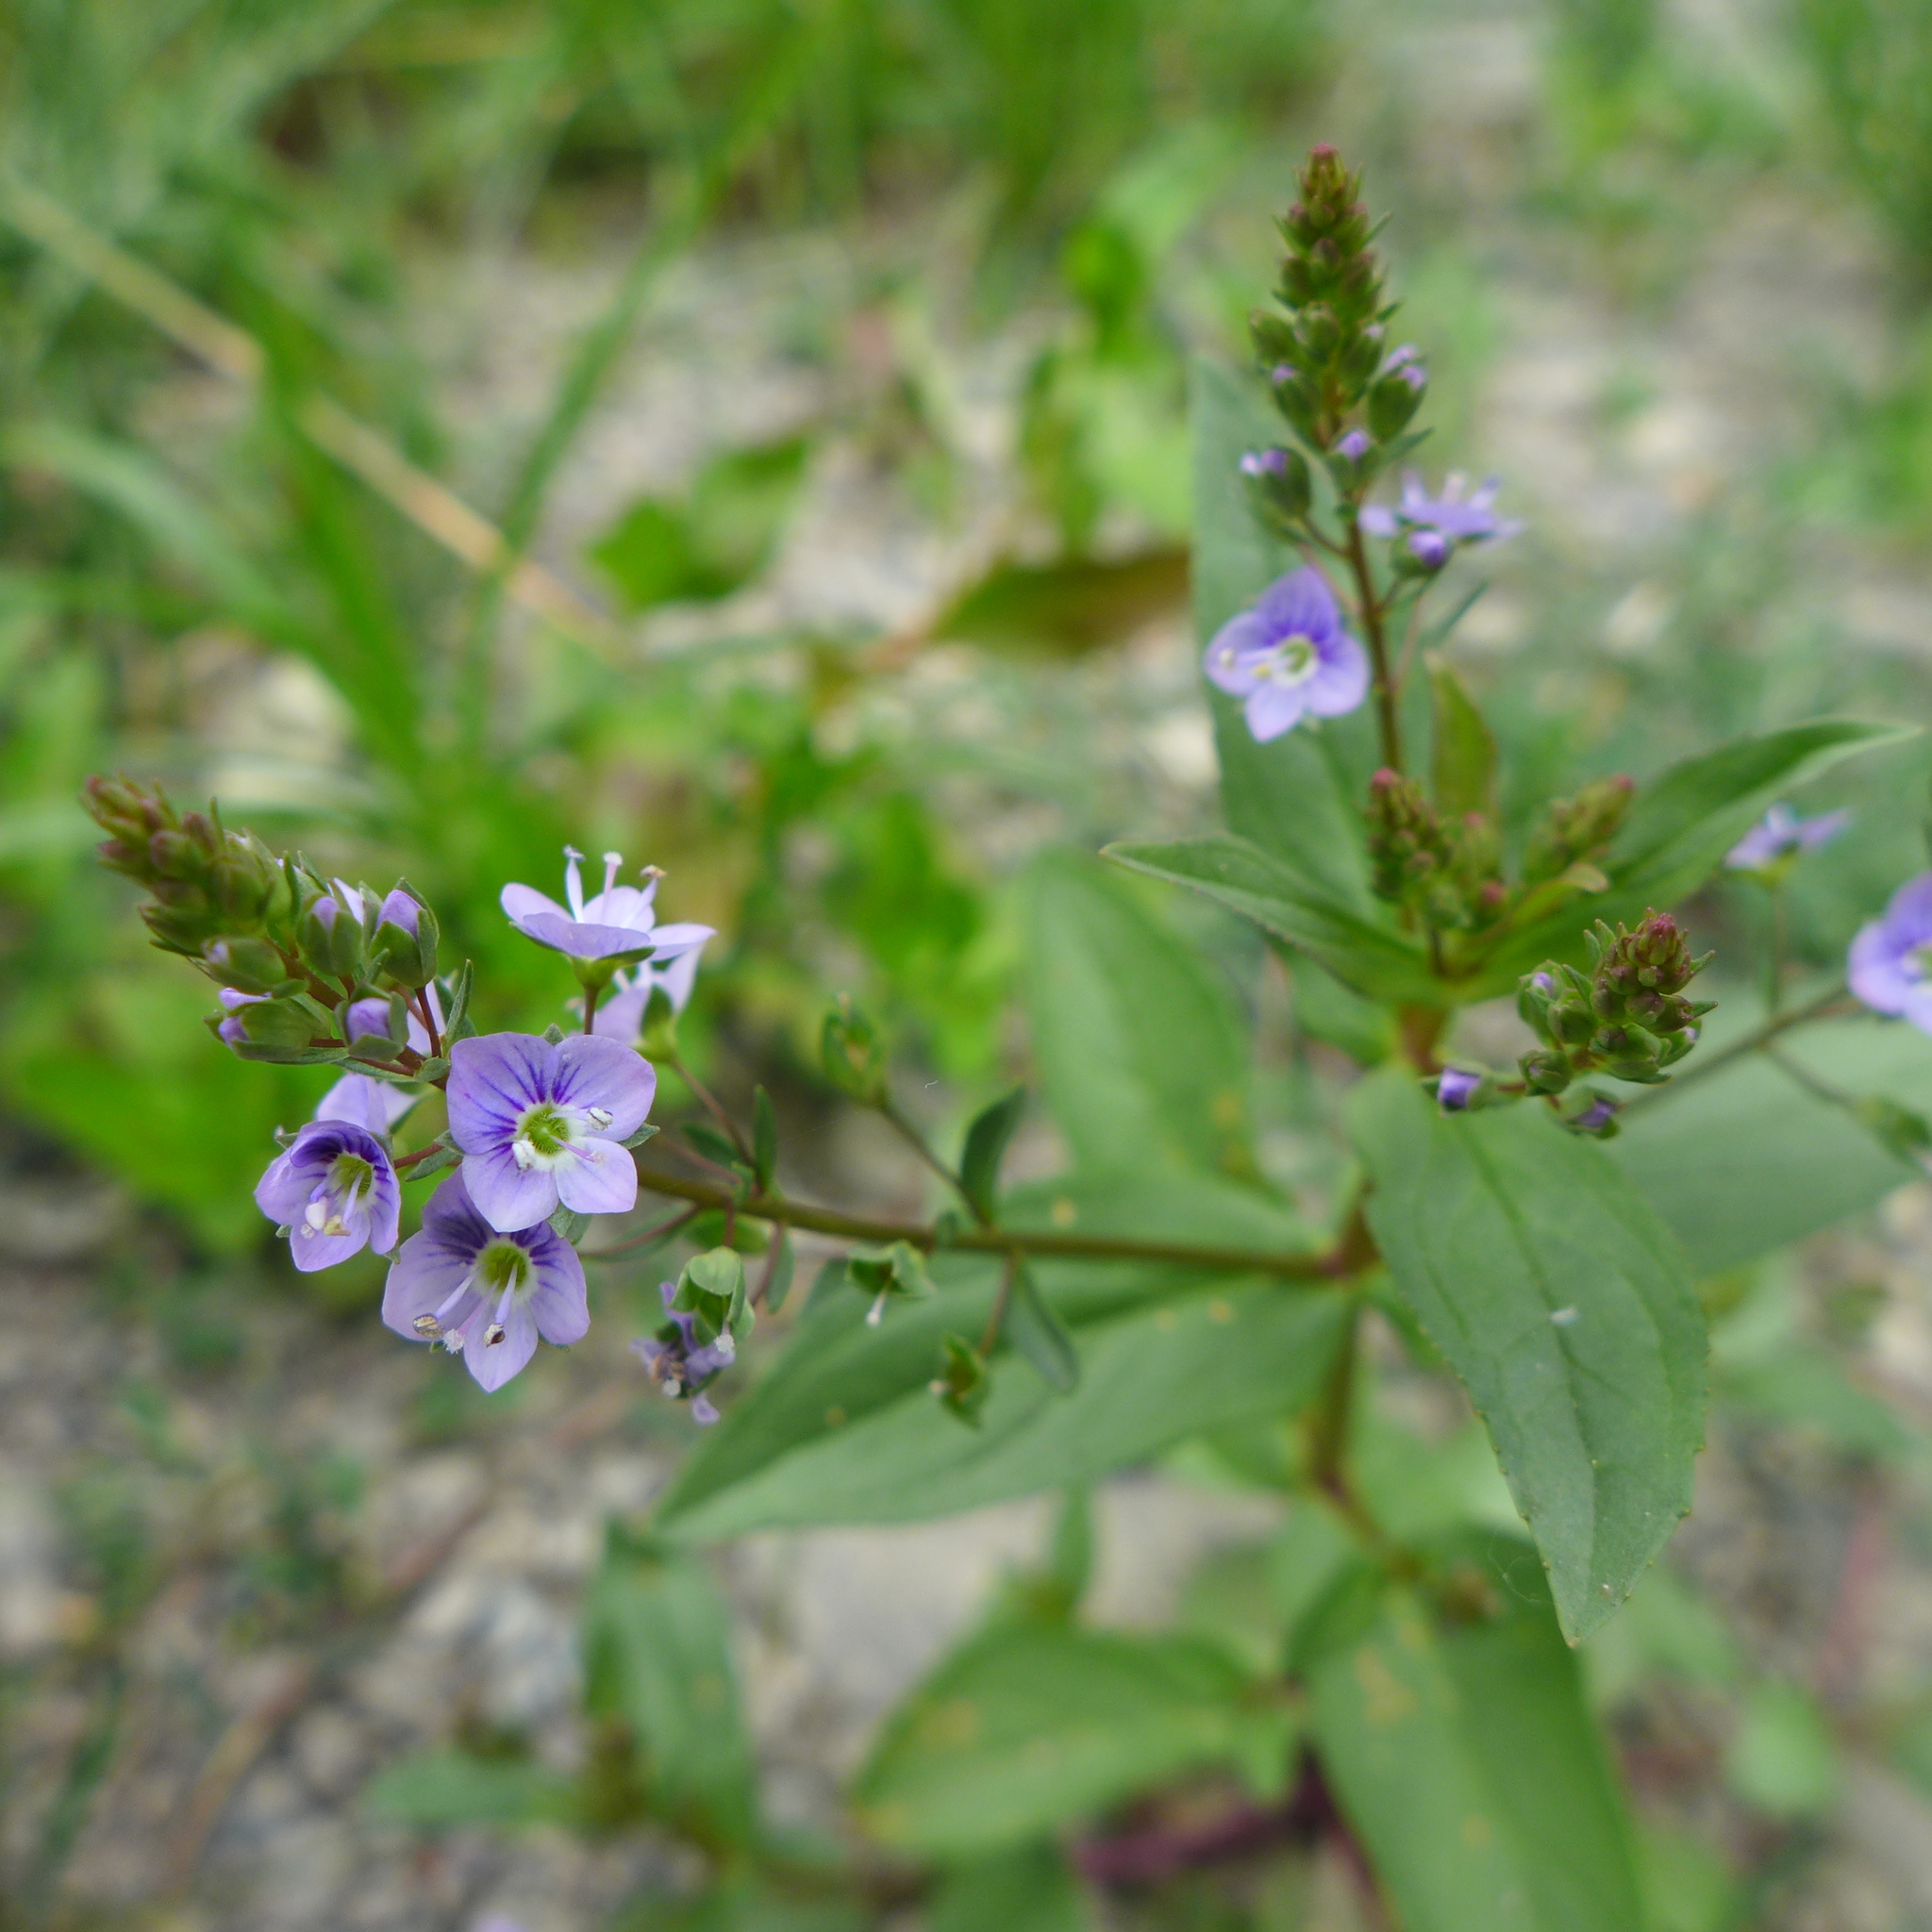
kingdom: Plantae
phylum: Tracheophyta
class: Magnoliopsida
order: Lamiales
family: Plantaginaceae
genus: Veronica
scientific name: Veronica anagallis-aquatica
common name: Water speedwell
